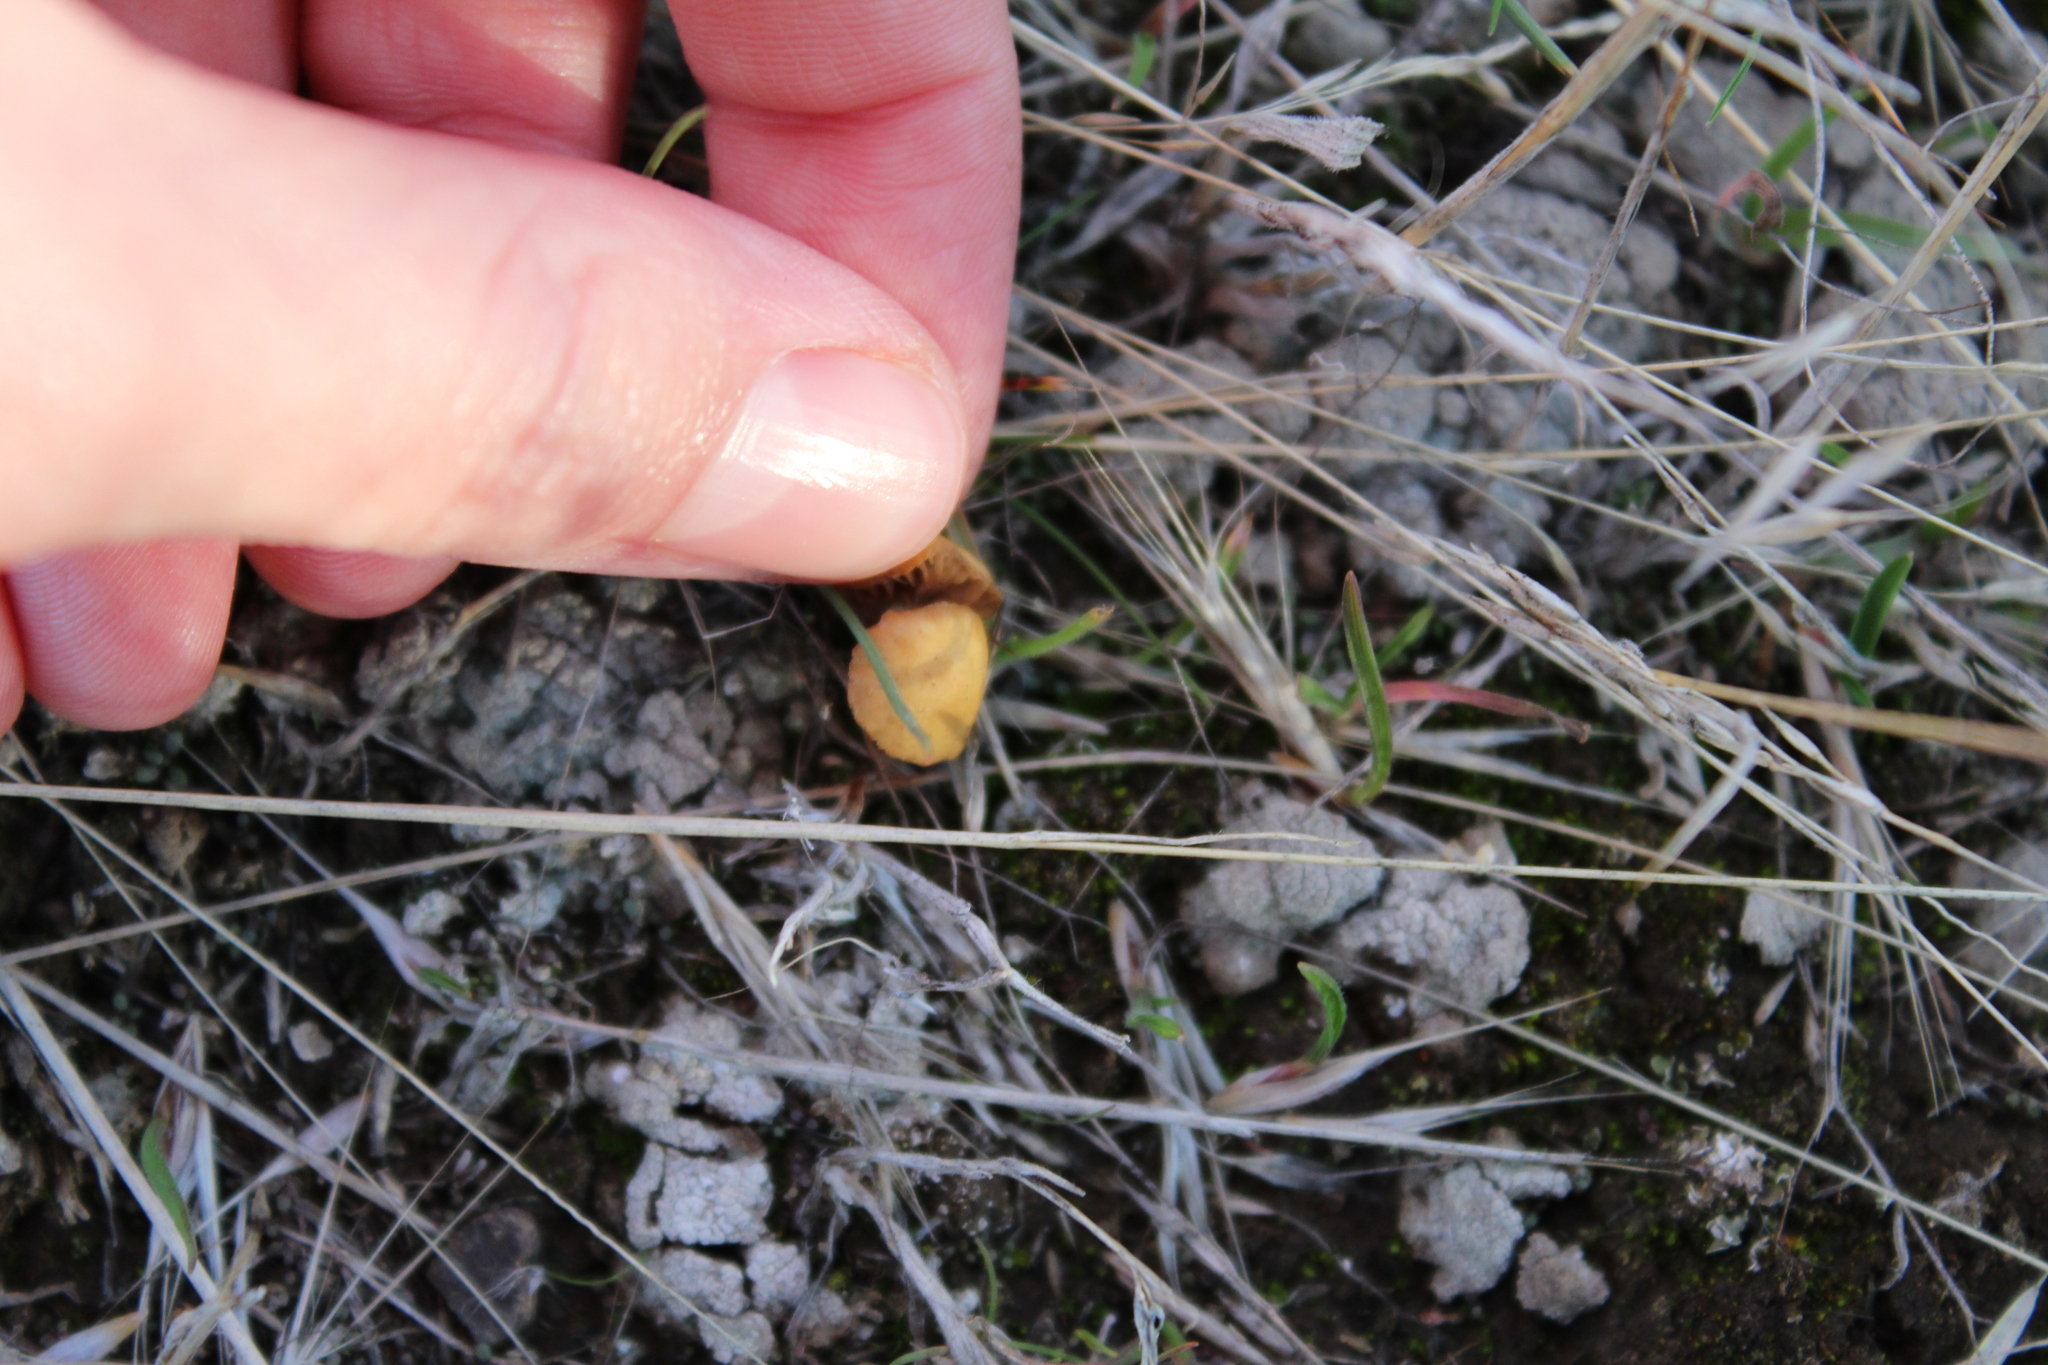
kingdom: Fungi
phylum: Basidiomycota
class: Agaricomycetes
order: Agaricales
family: Strophariaceae
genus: Agrocybe
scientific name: Agrocybe pediades
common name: Common fieldcap
